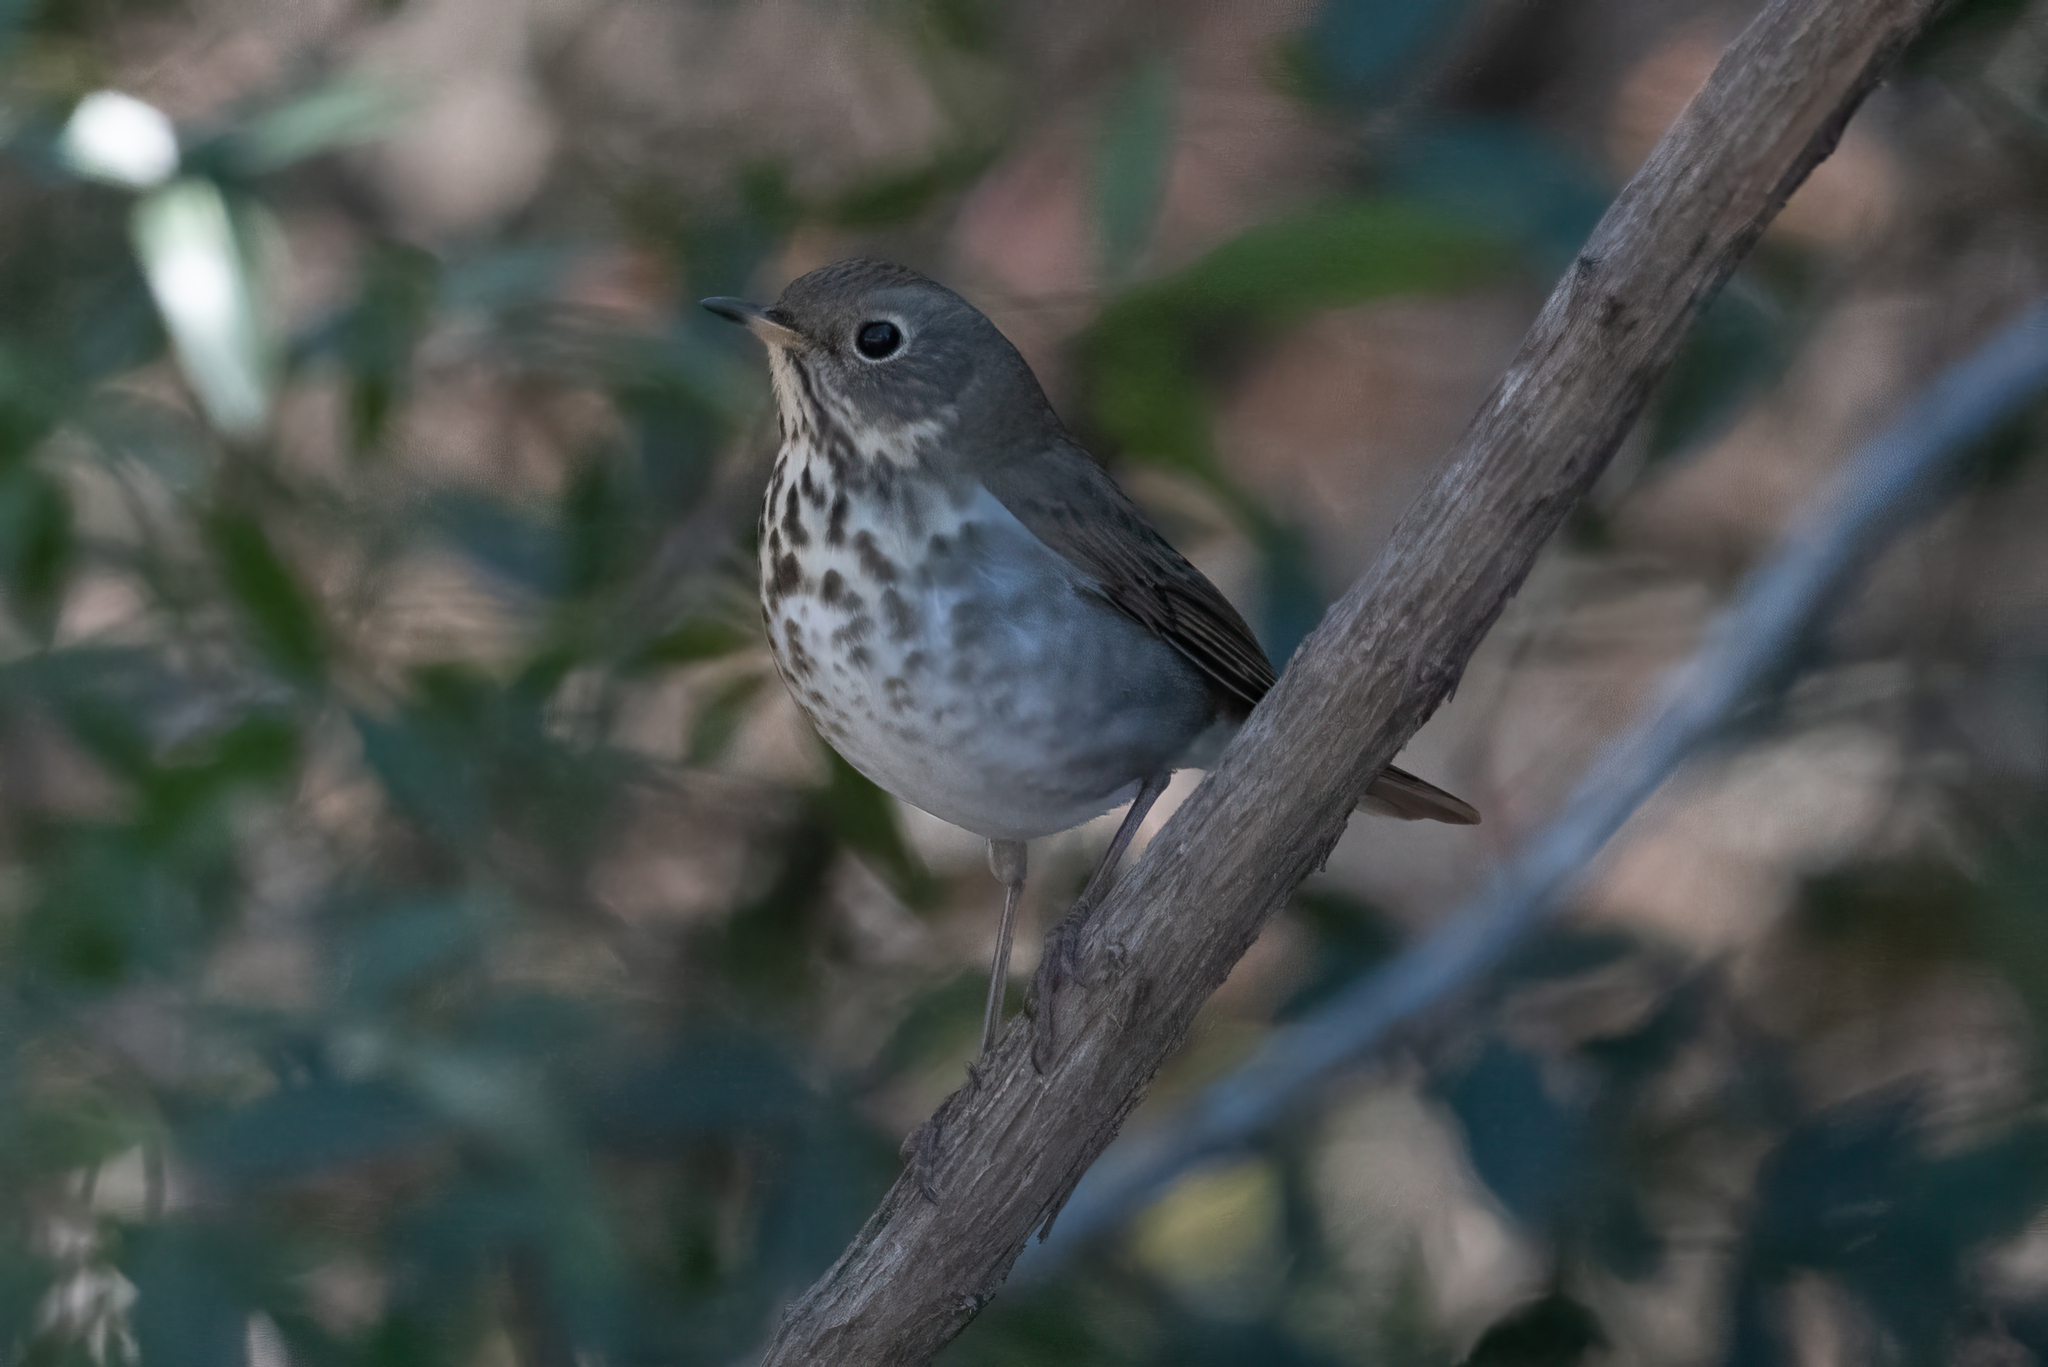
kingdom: Animalia
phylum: Chordata
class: Aves
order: Passeriformes
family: Turdidae
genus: Catharus
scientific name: Catharus guttatus
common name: Hermit thrush
